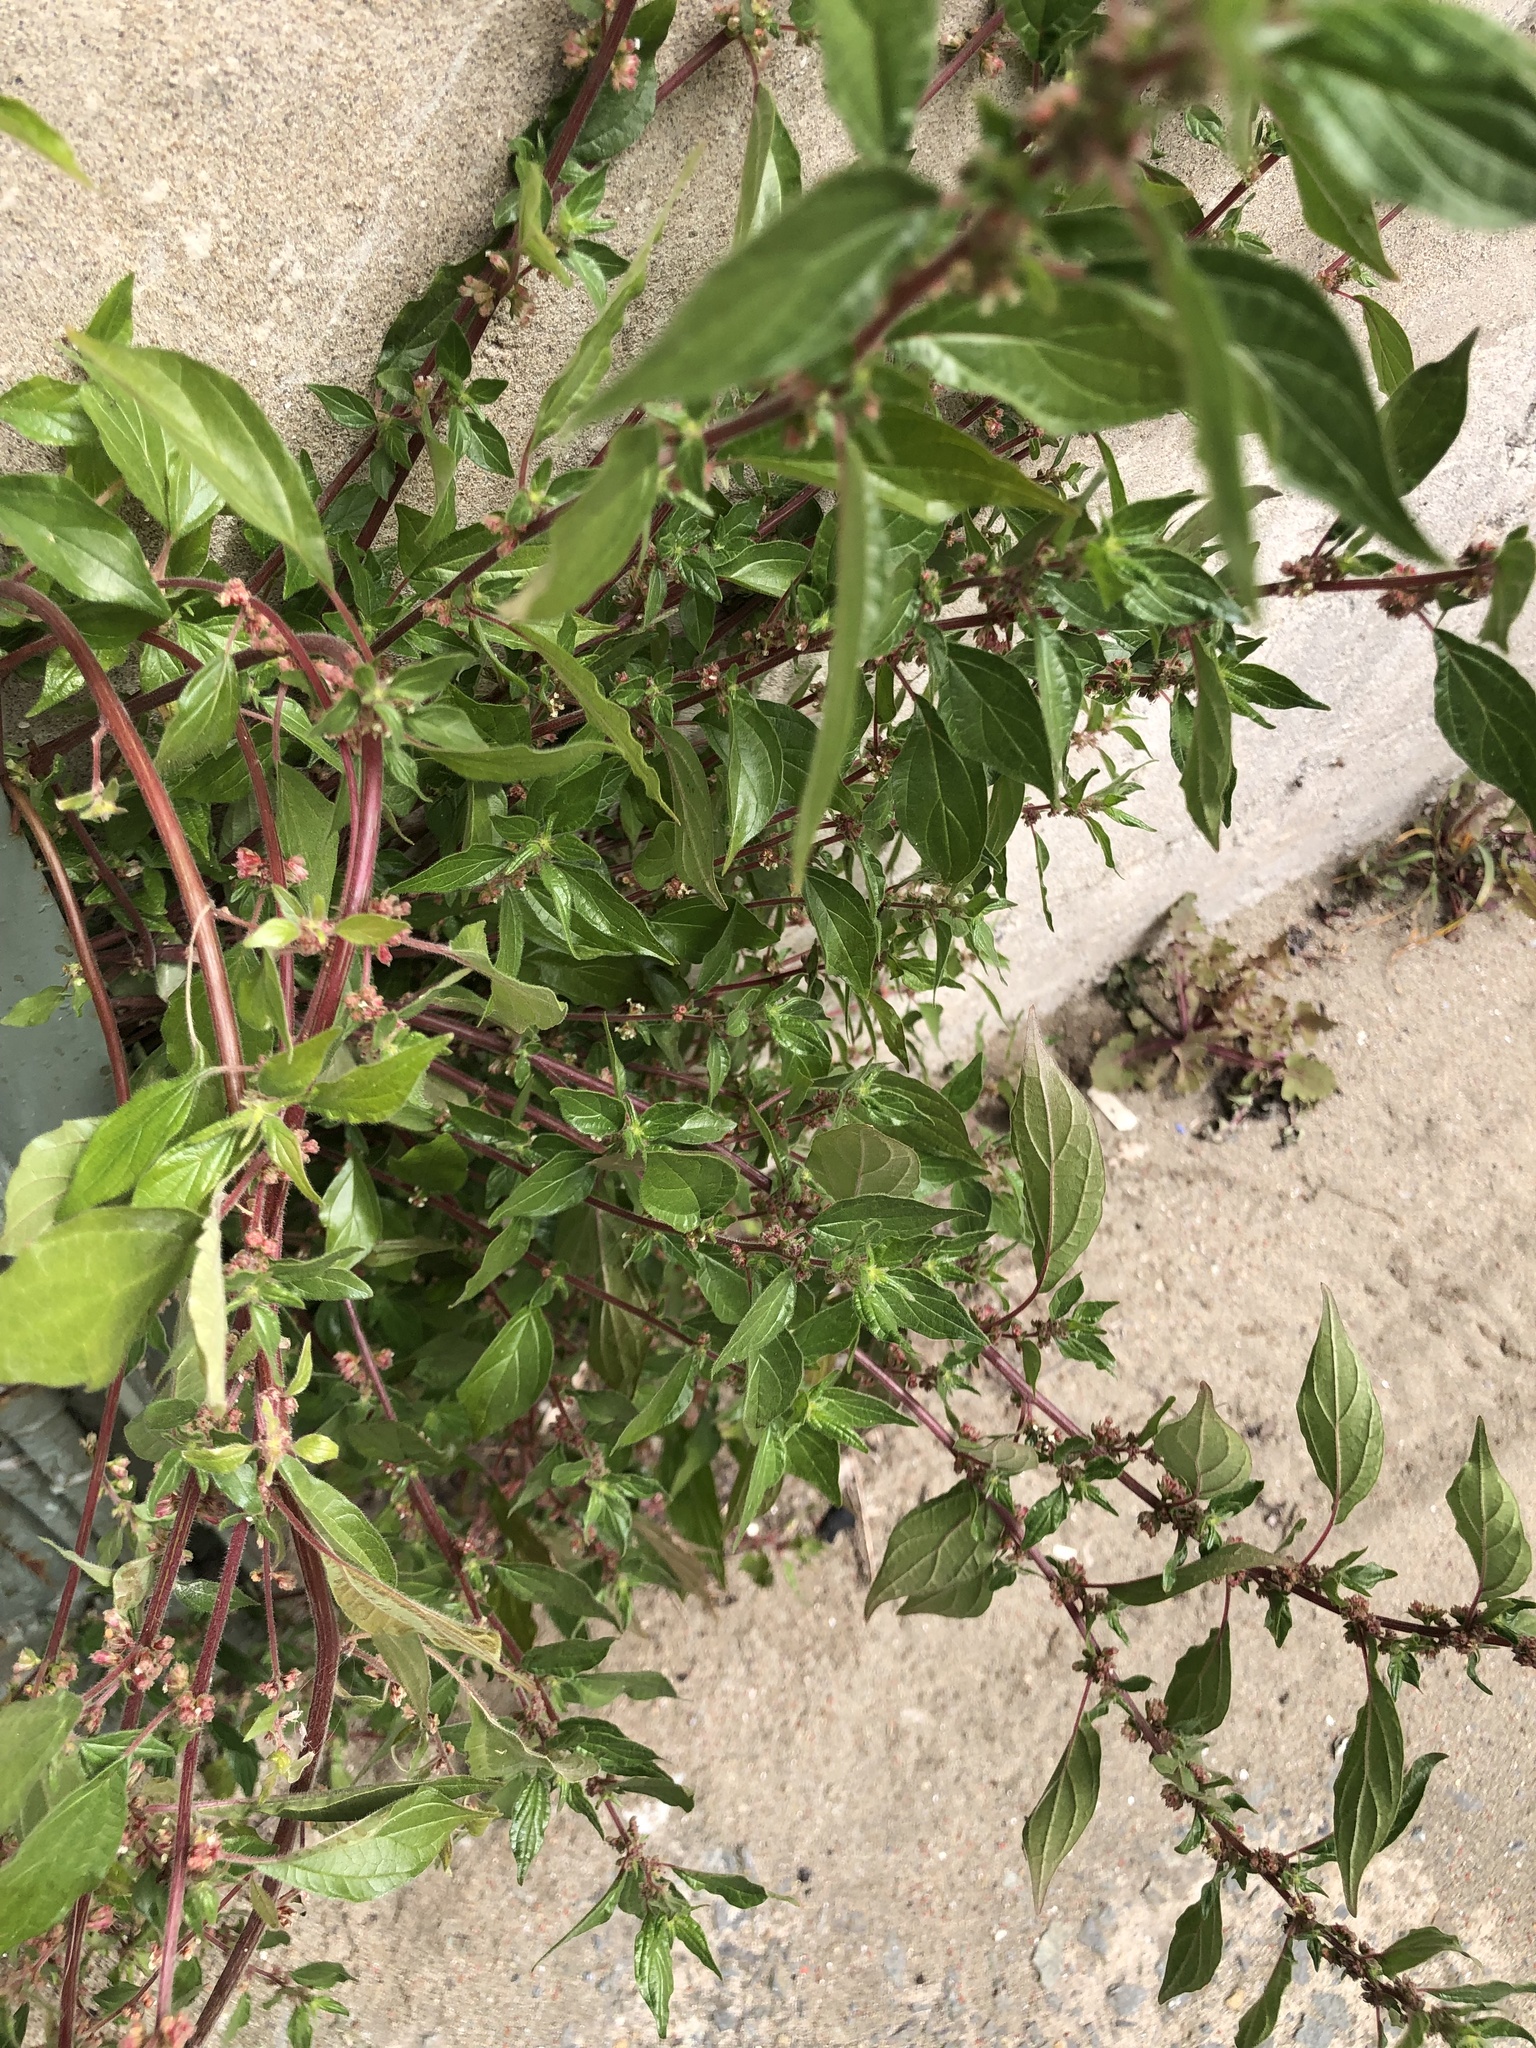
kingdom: Plantae
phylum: Tracheophyta
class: Magnoliopsida
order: Rosales
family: Urticaceae
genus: Parietaria
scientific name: Parietaria judaica
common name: Pellitory-of-the-wall
